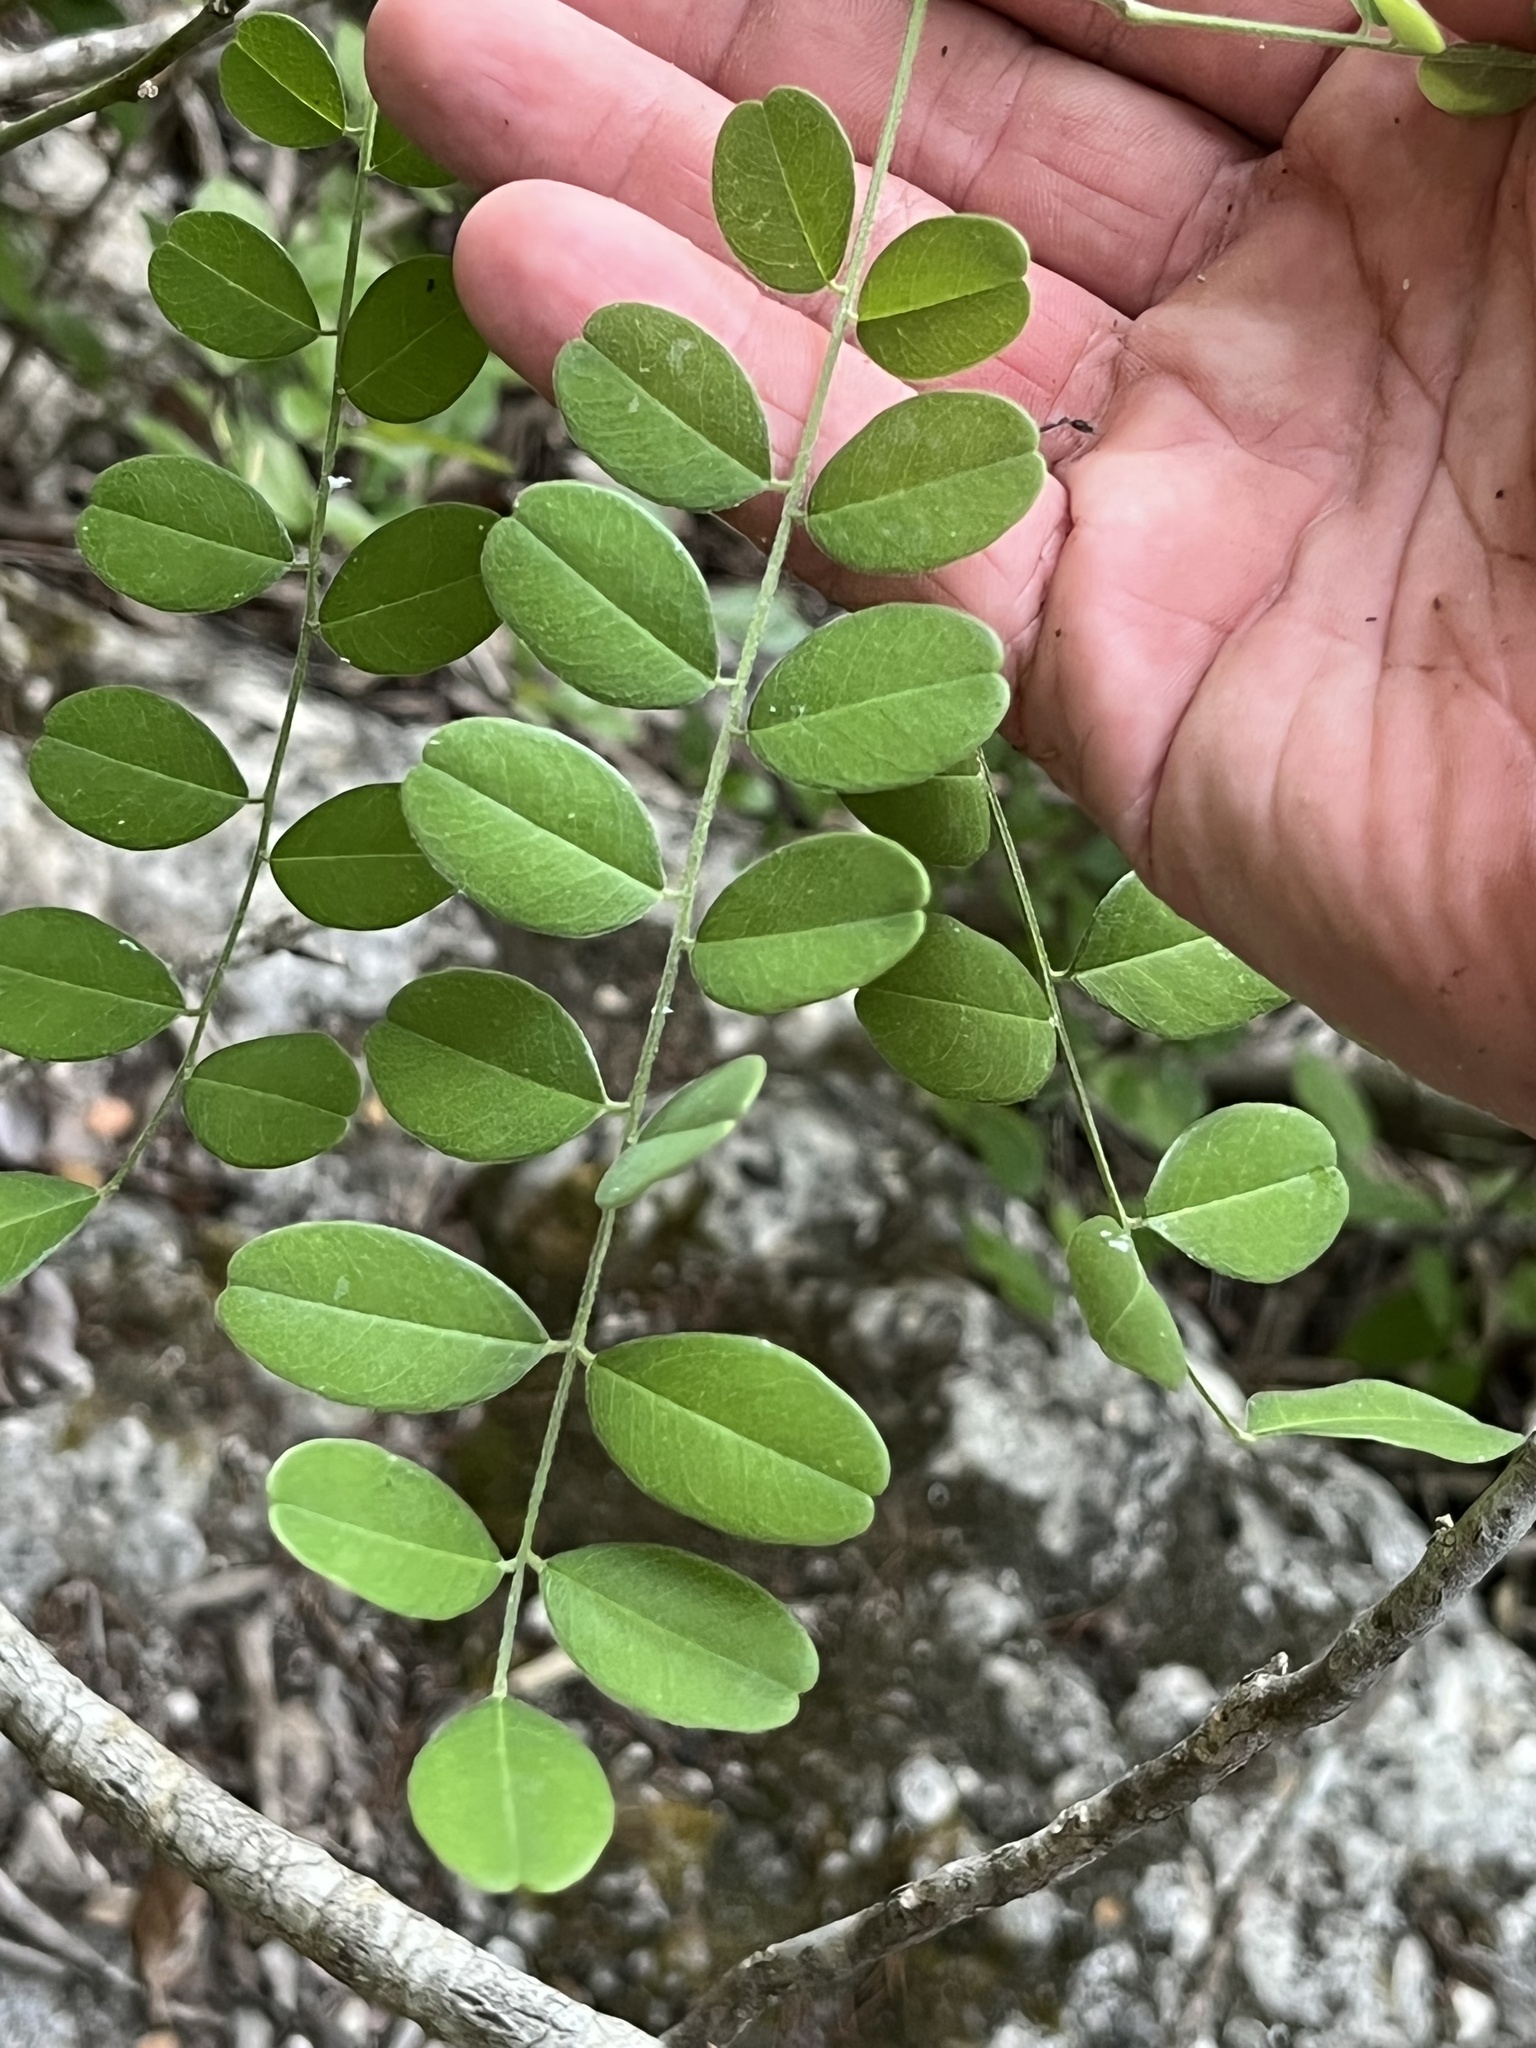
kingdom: Plantae
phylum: Tracheophyta
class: Magnoliopsida
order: Fabales
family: Fabaceae
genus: Styphnolobium
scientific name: Styphnolobium affine
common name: Texas sophora
